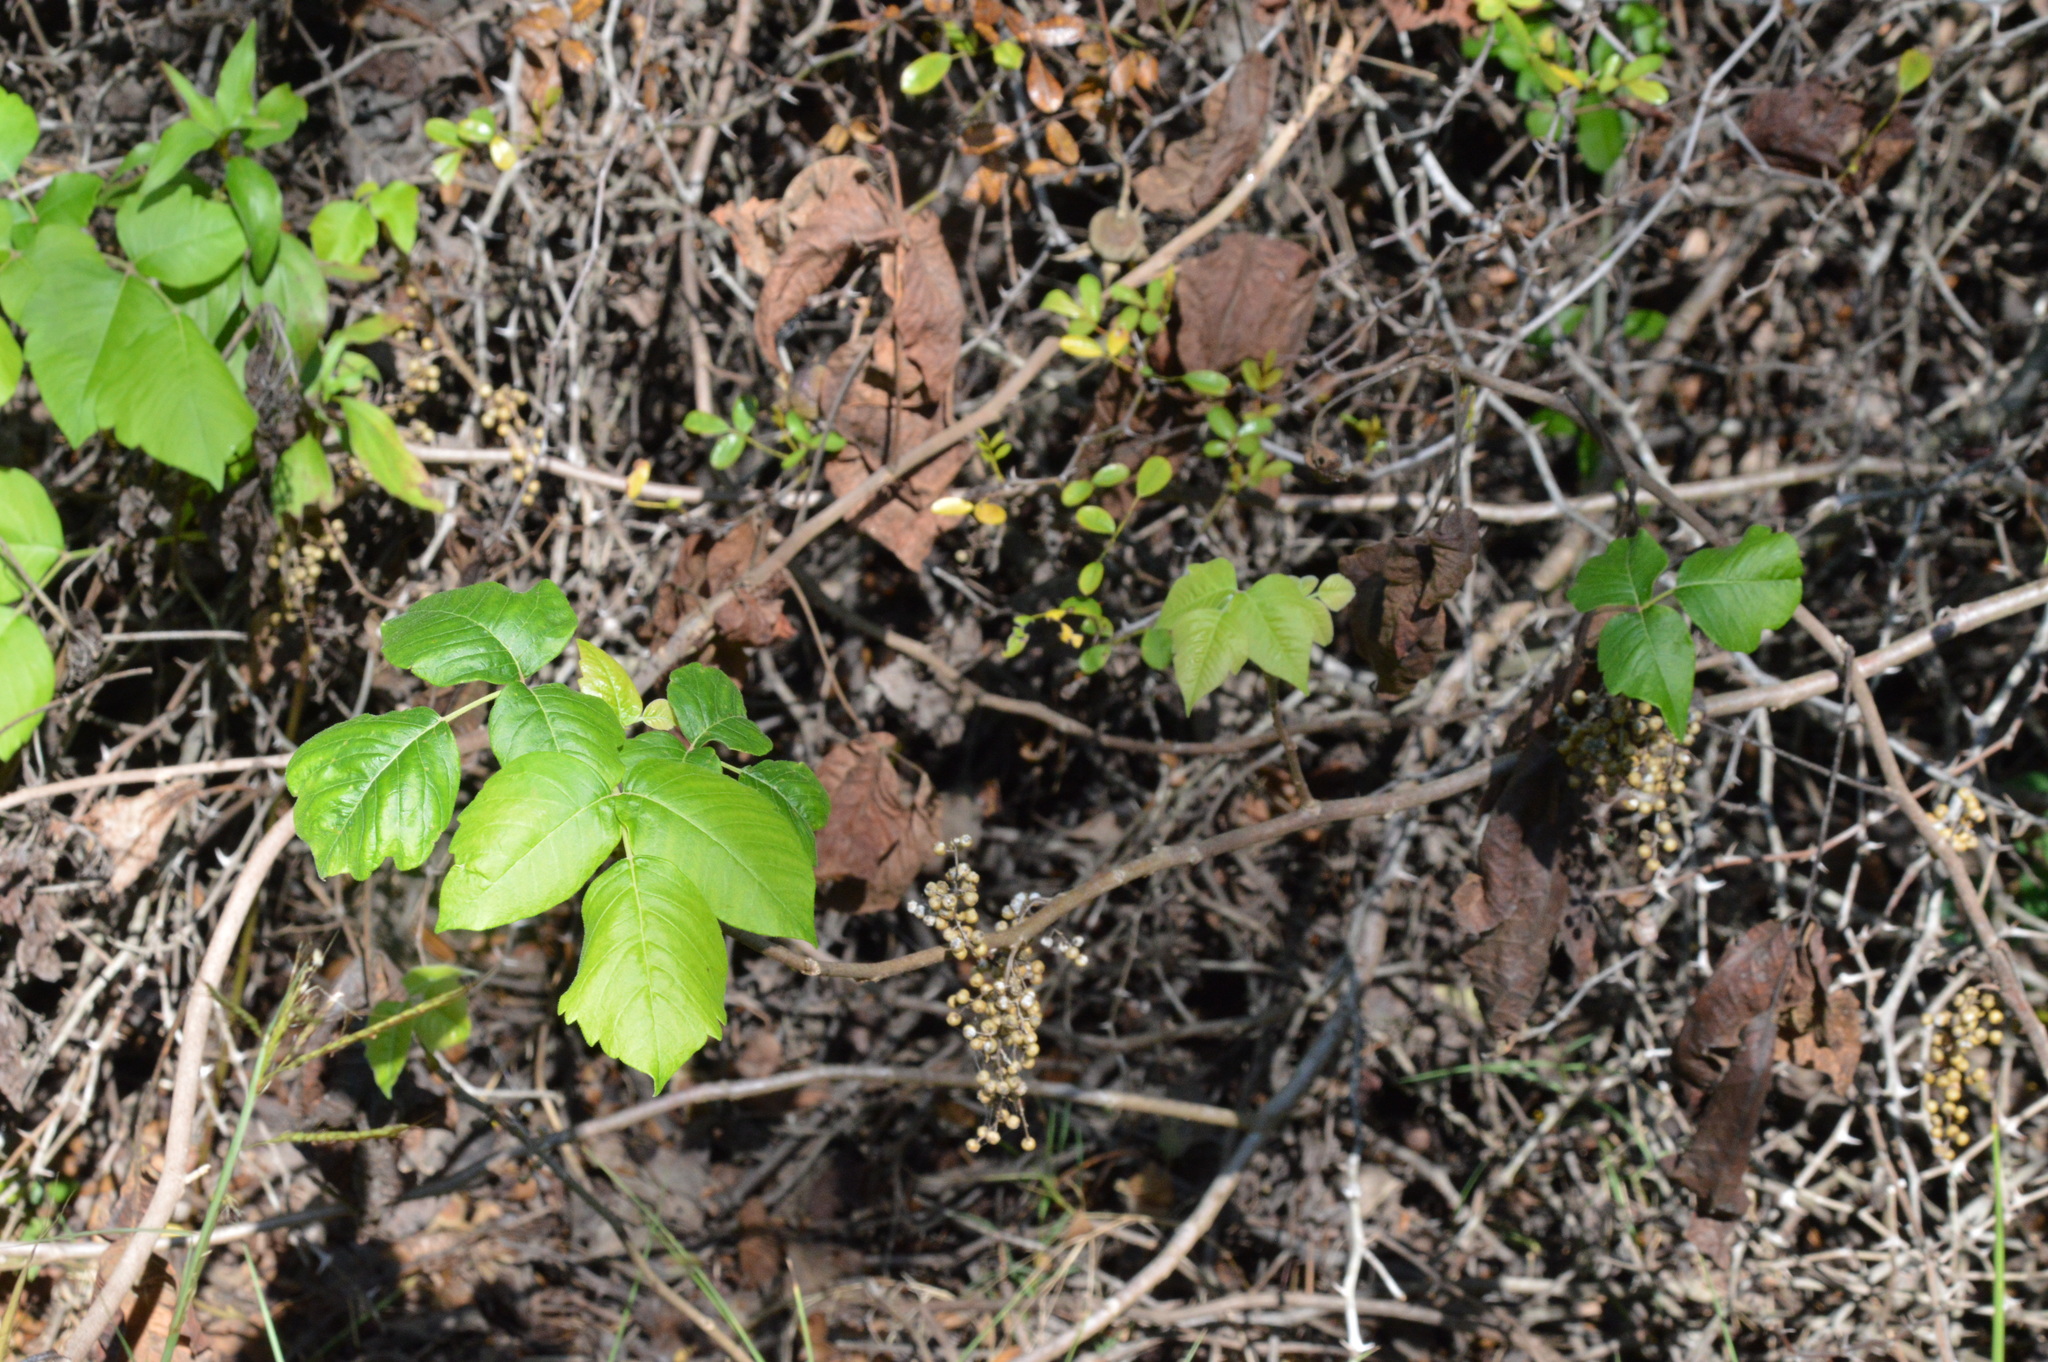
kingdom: Plantae
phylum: Tracheophyta
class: Magnoliopsida
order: Sapindales
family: Anacardiaceae
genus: Toxicodendron
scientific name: Toxicodendron radicans
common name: Poison ivy
